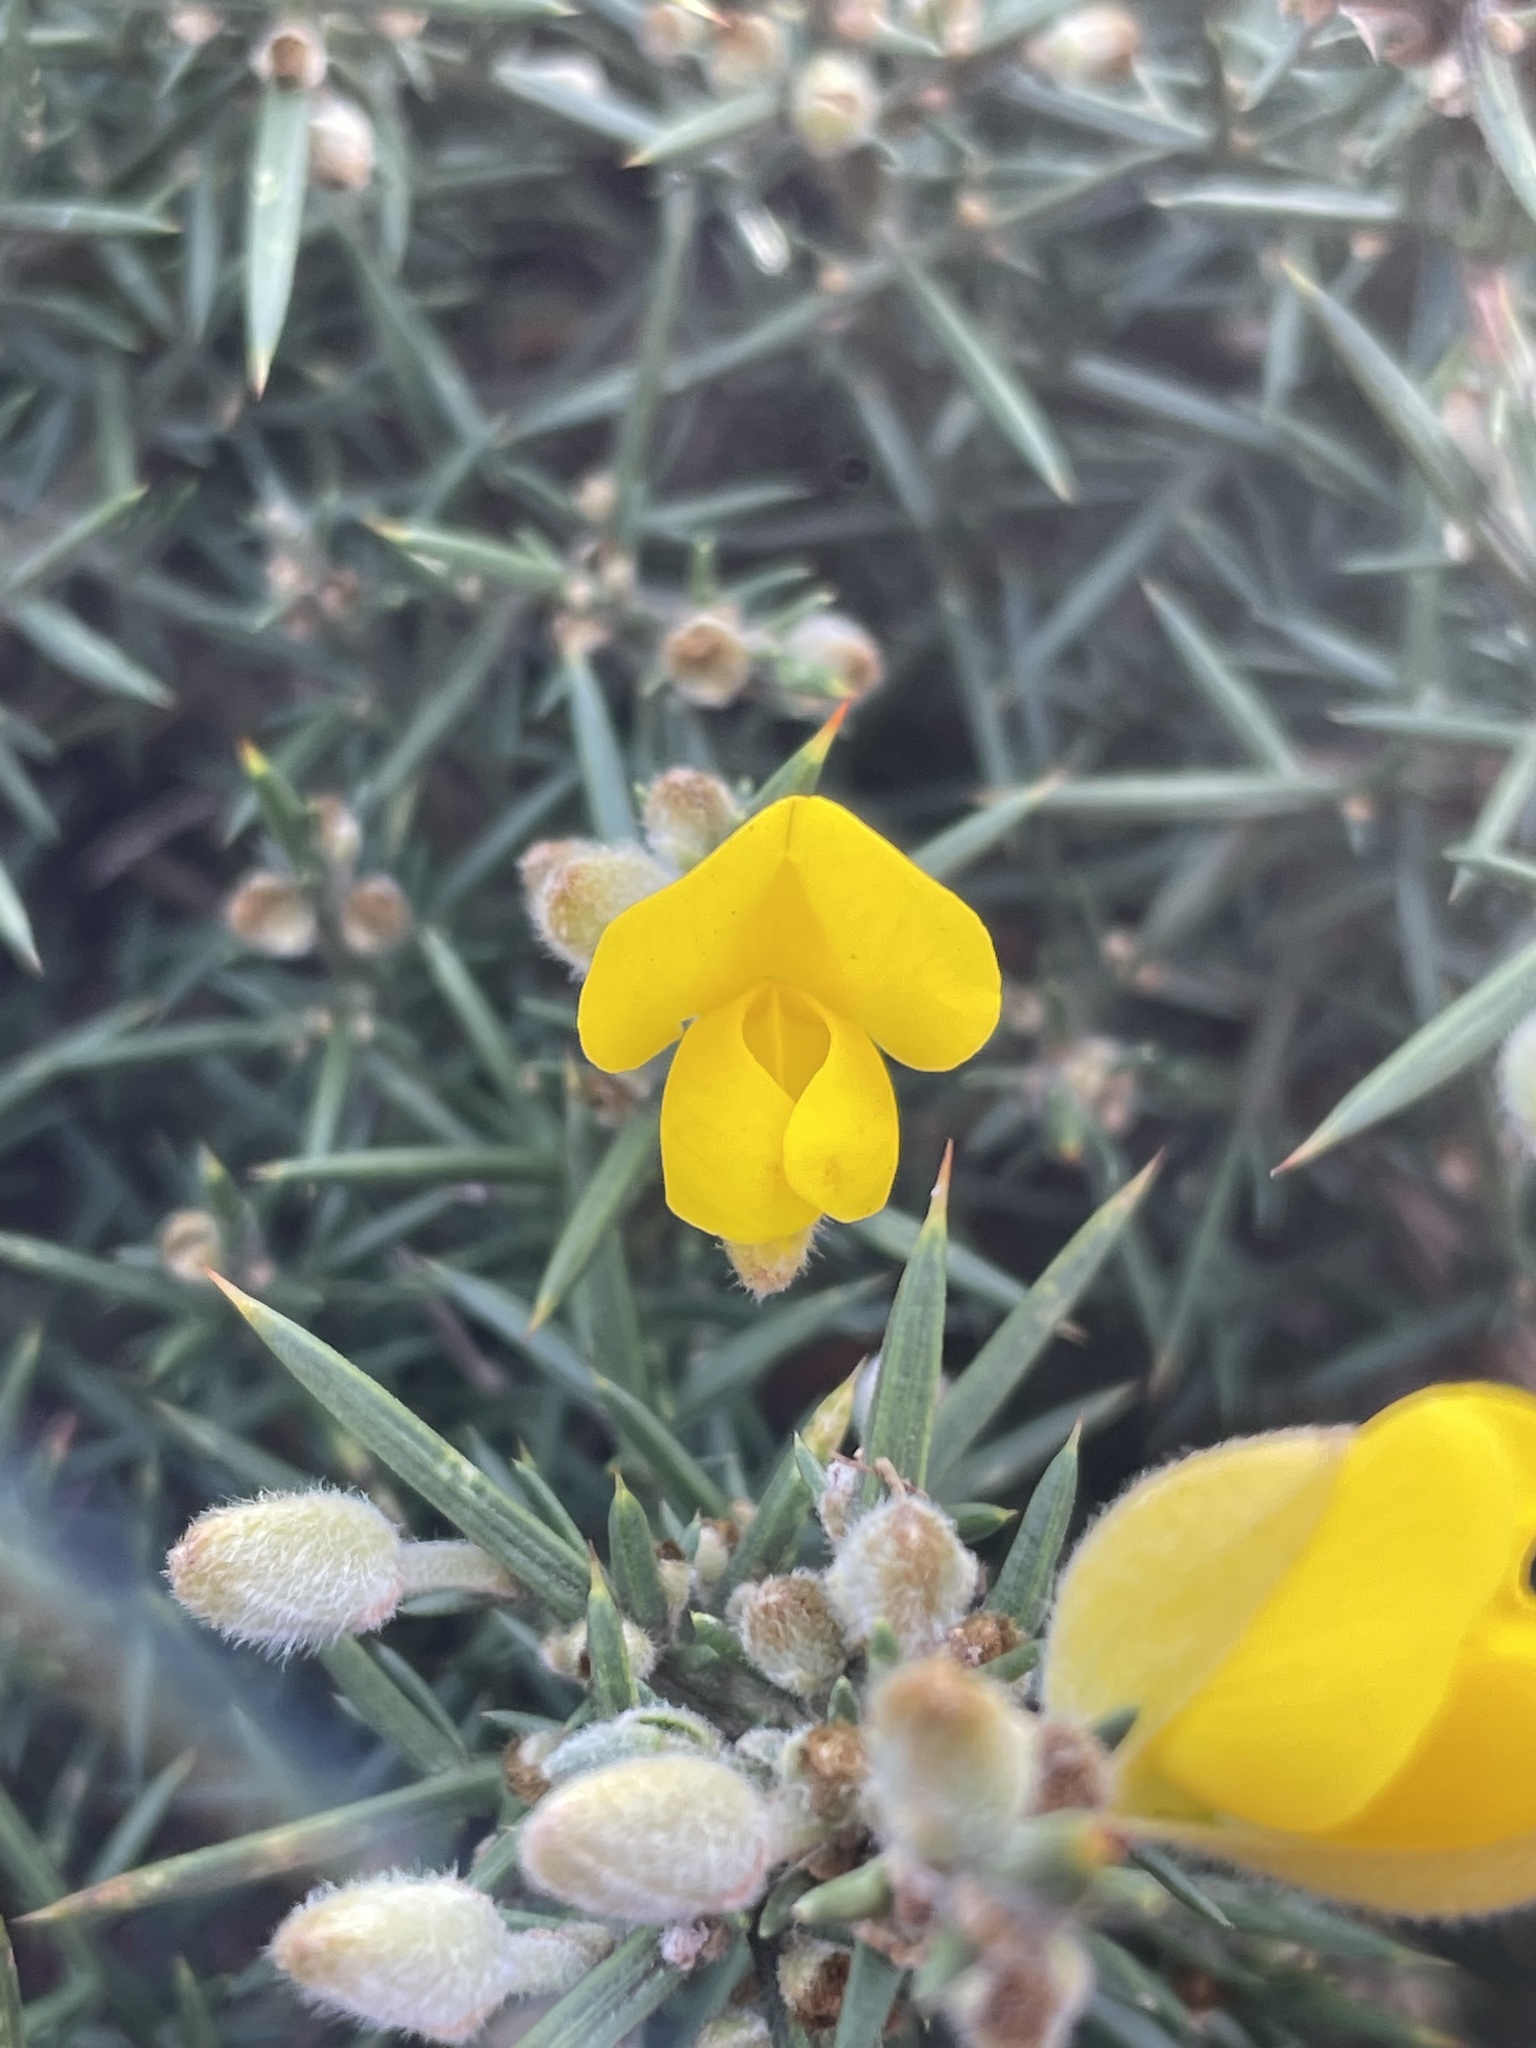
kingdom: Plantae
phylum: Tracheophyta
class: Magnoliopsida
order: Fabales
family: Fabaceae
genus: Ulex
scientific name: Ulex europaeus
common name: Common gorse
